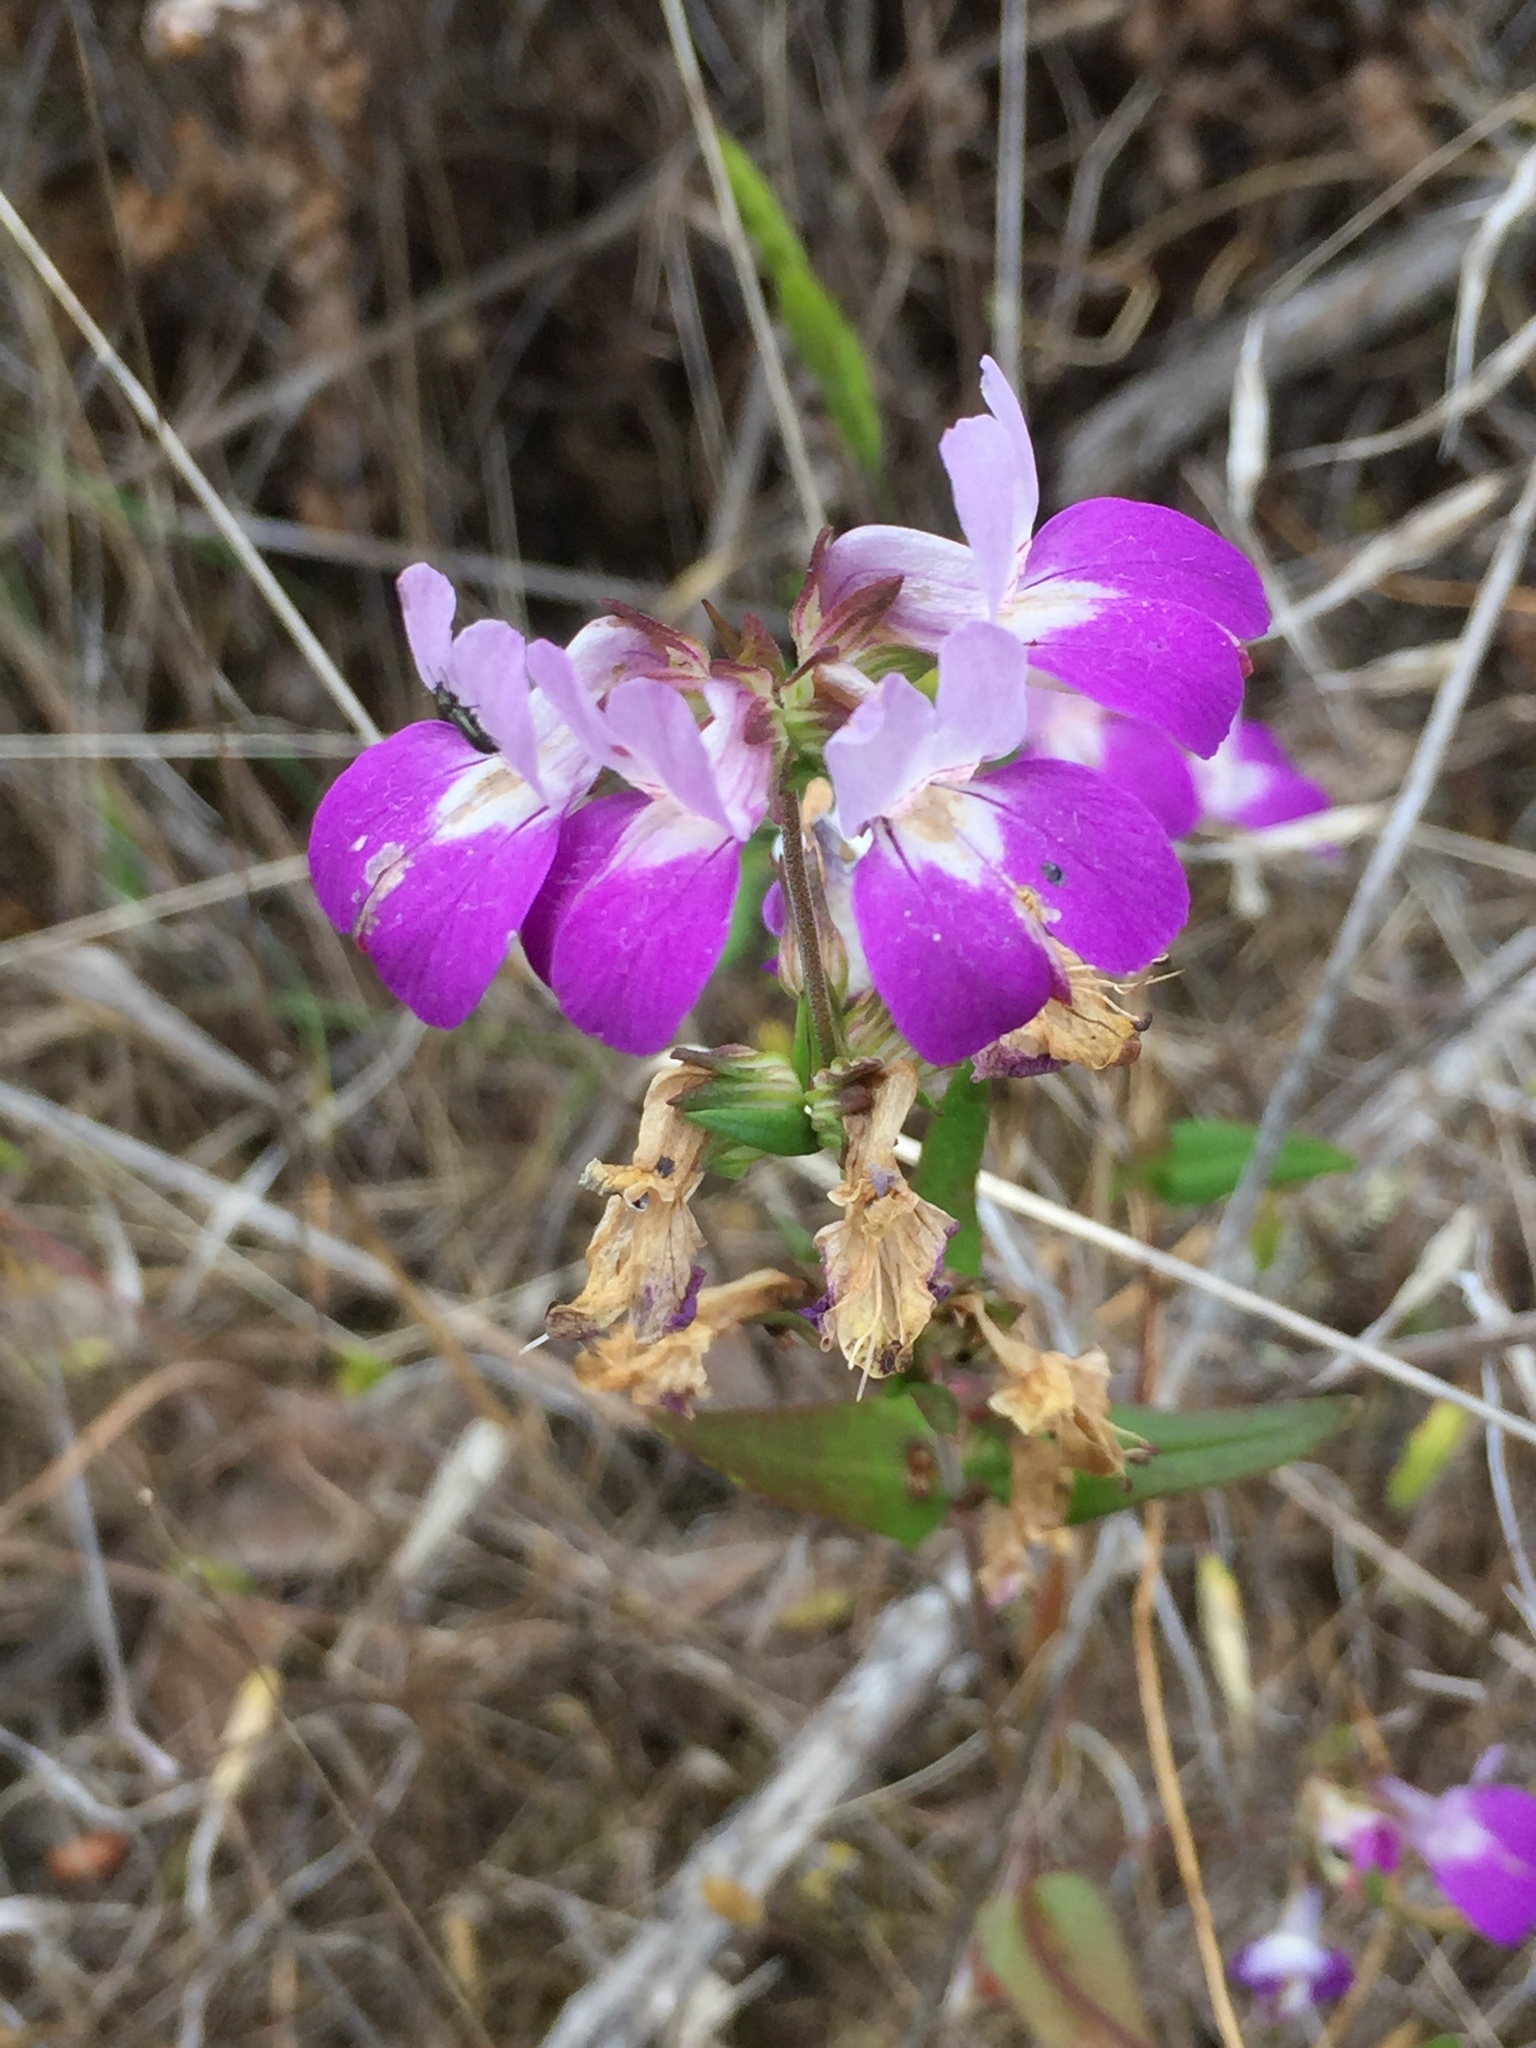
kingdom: Plantae
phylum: Tracheophyta
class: Magnoliopsida
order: Lamiales
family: Plantaginaceae
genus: Collinsia
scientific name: Collinsia heterophylla
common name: Chinese-houses
